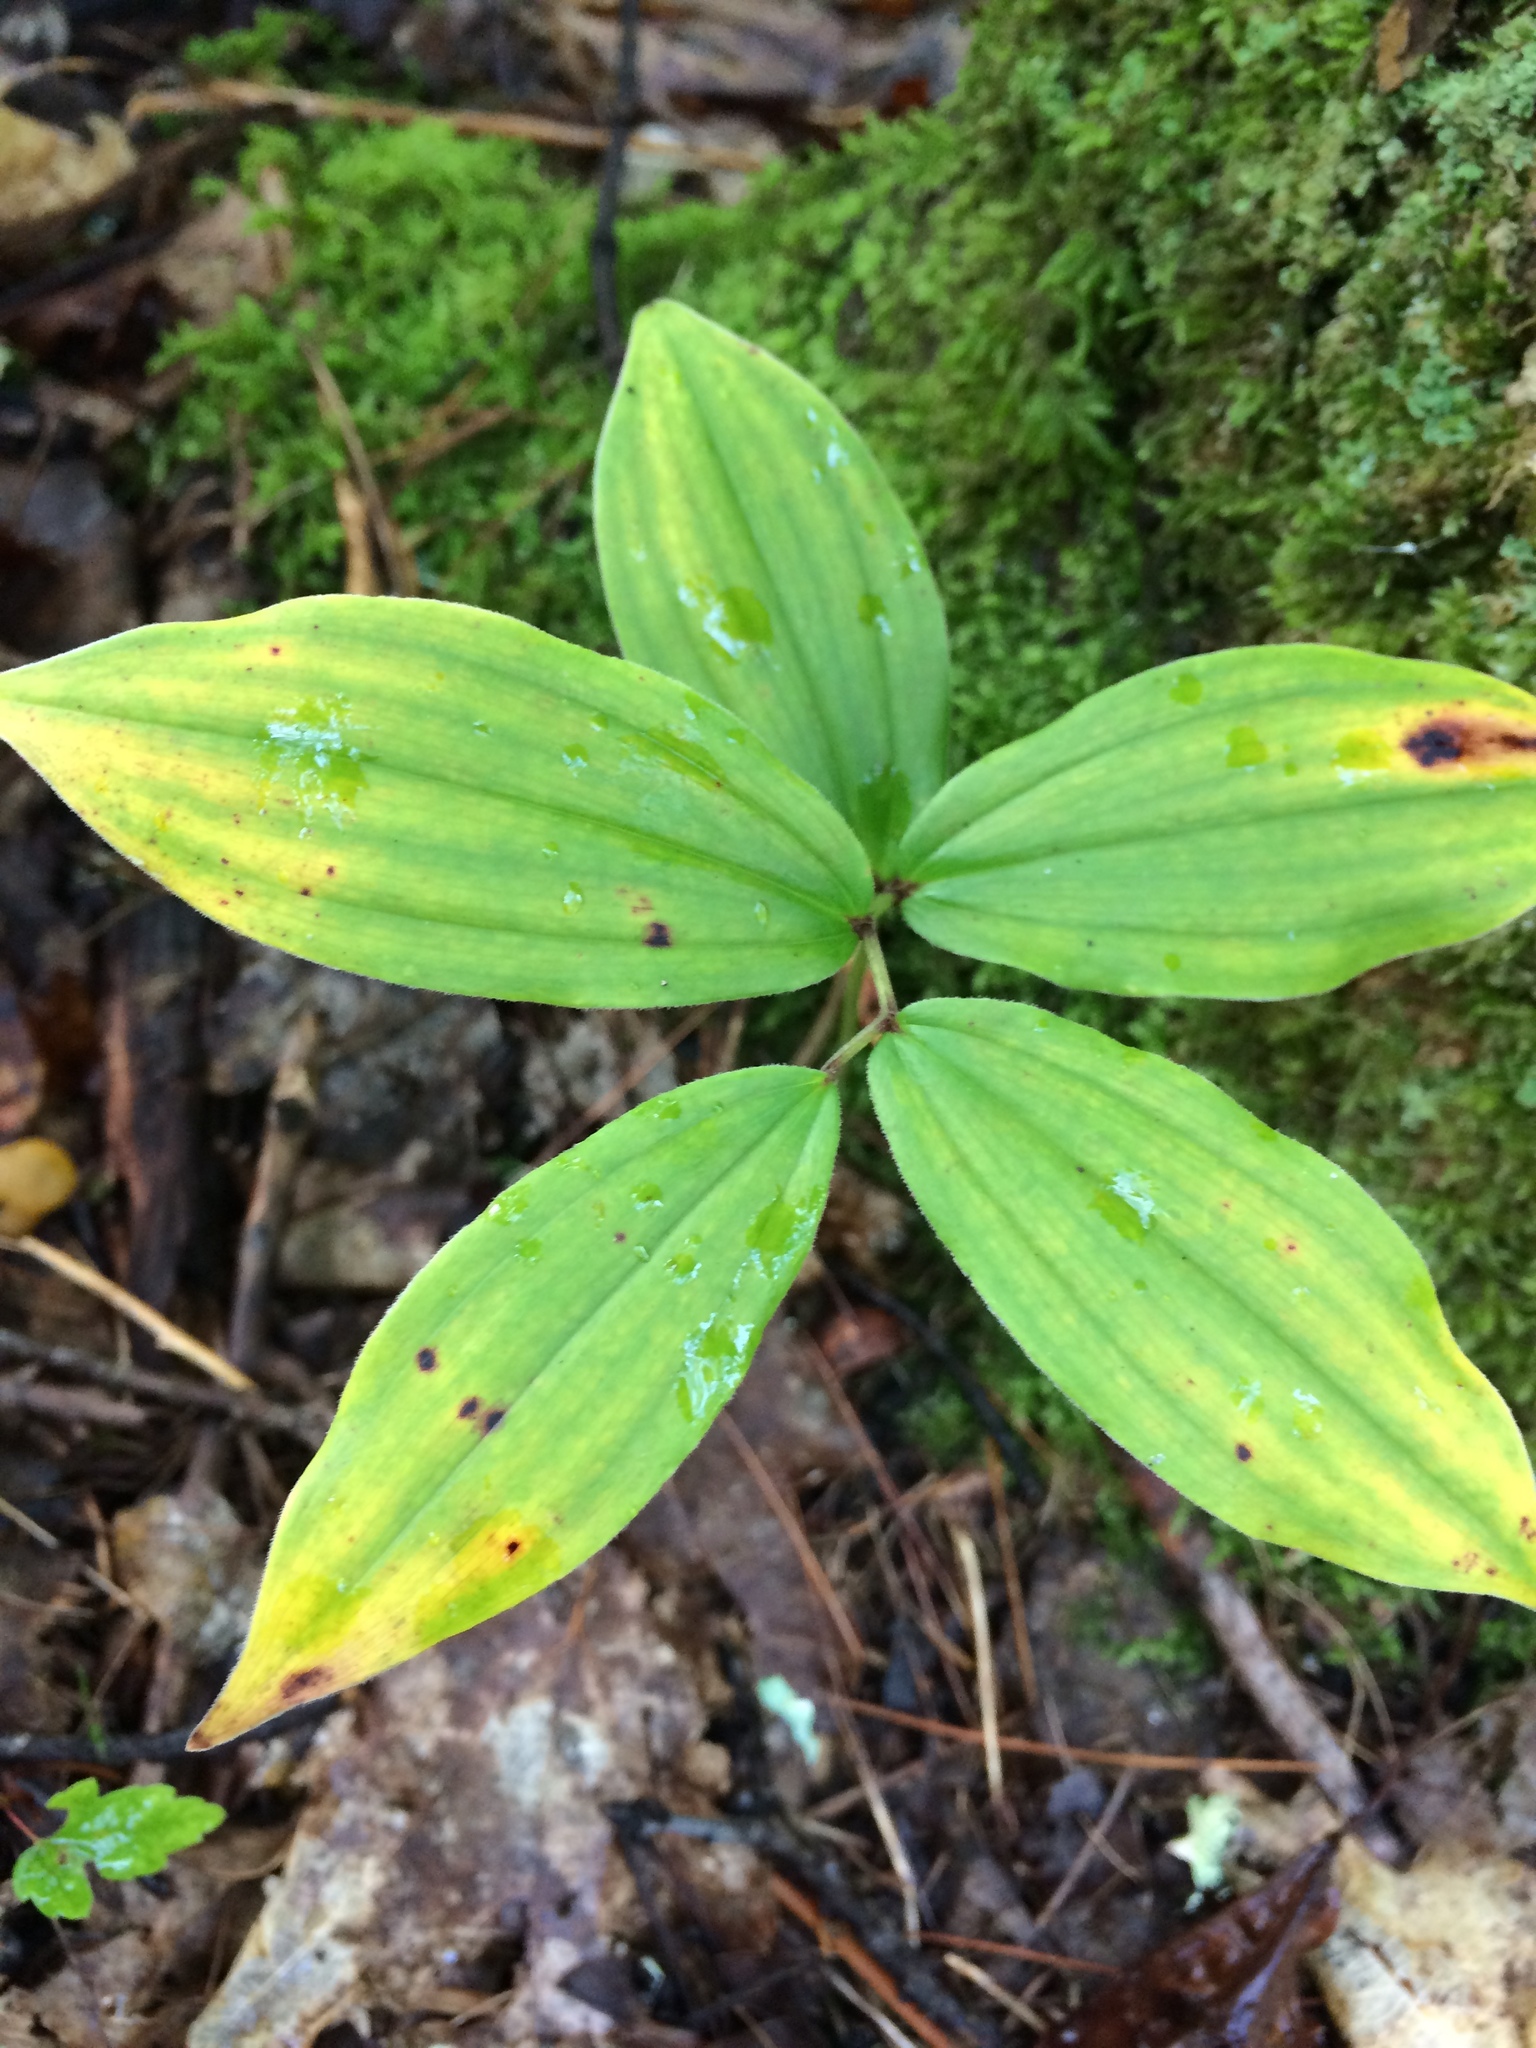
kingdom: Plantae
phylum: Tracheophyta
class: Liliopsida
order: Asparagales
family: Asparagaceae
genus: Maianthemum
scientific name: Maianthemum racemosum
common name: False spikenard
